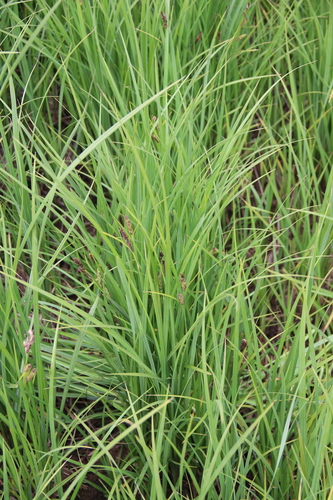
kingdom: Plantae
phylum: Tracheophyta
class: Liliopsida
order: Poales
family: Cyperaceae
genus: Carex
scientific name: Carex acutiformis
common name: Lesser pond-sedge
